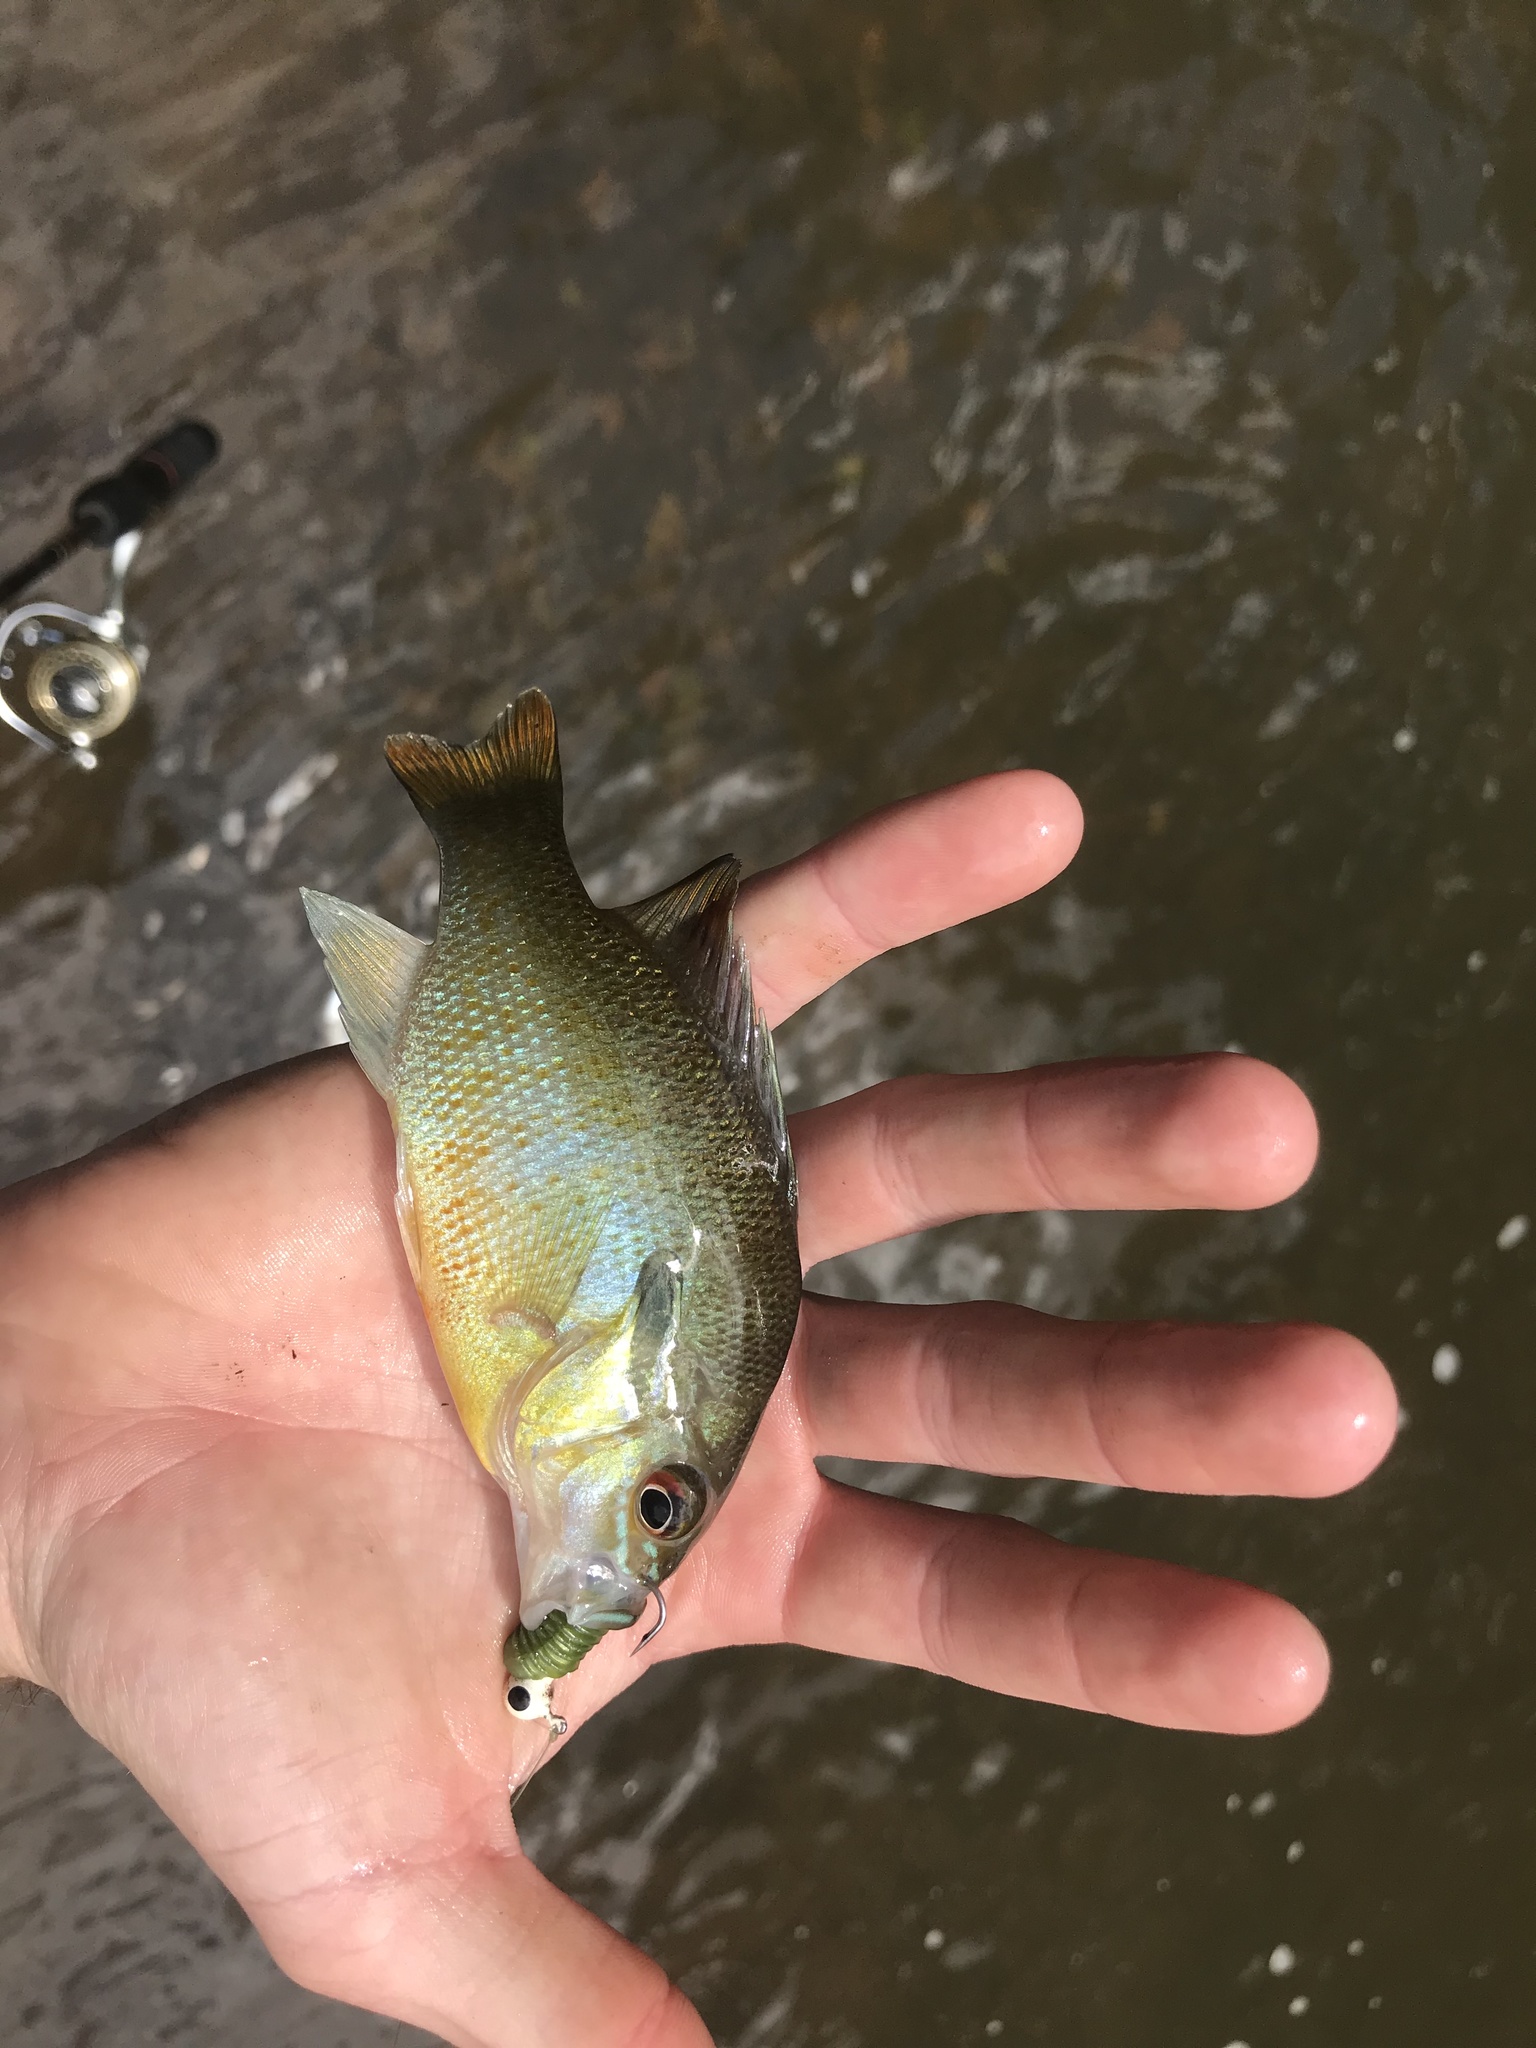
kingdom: Animalia
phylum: Chordata
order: Perciformes
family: Centrarchidae
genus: Lepomis
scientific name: Lepomis auritus
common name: Redbreast sunfish
